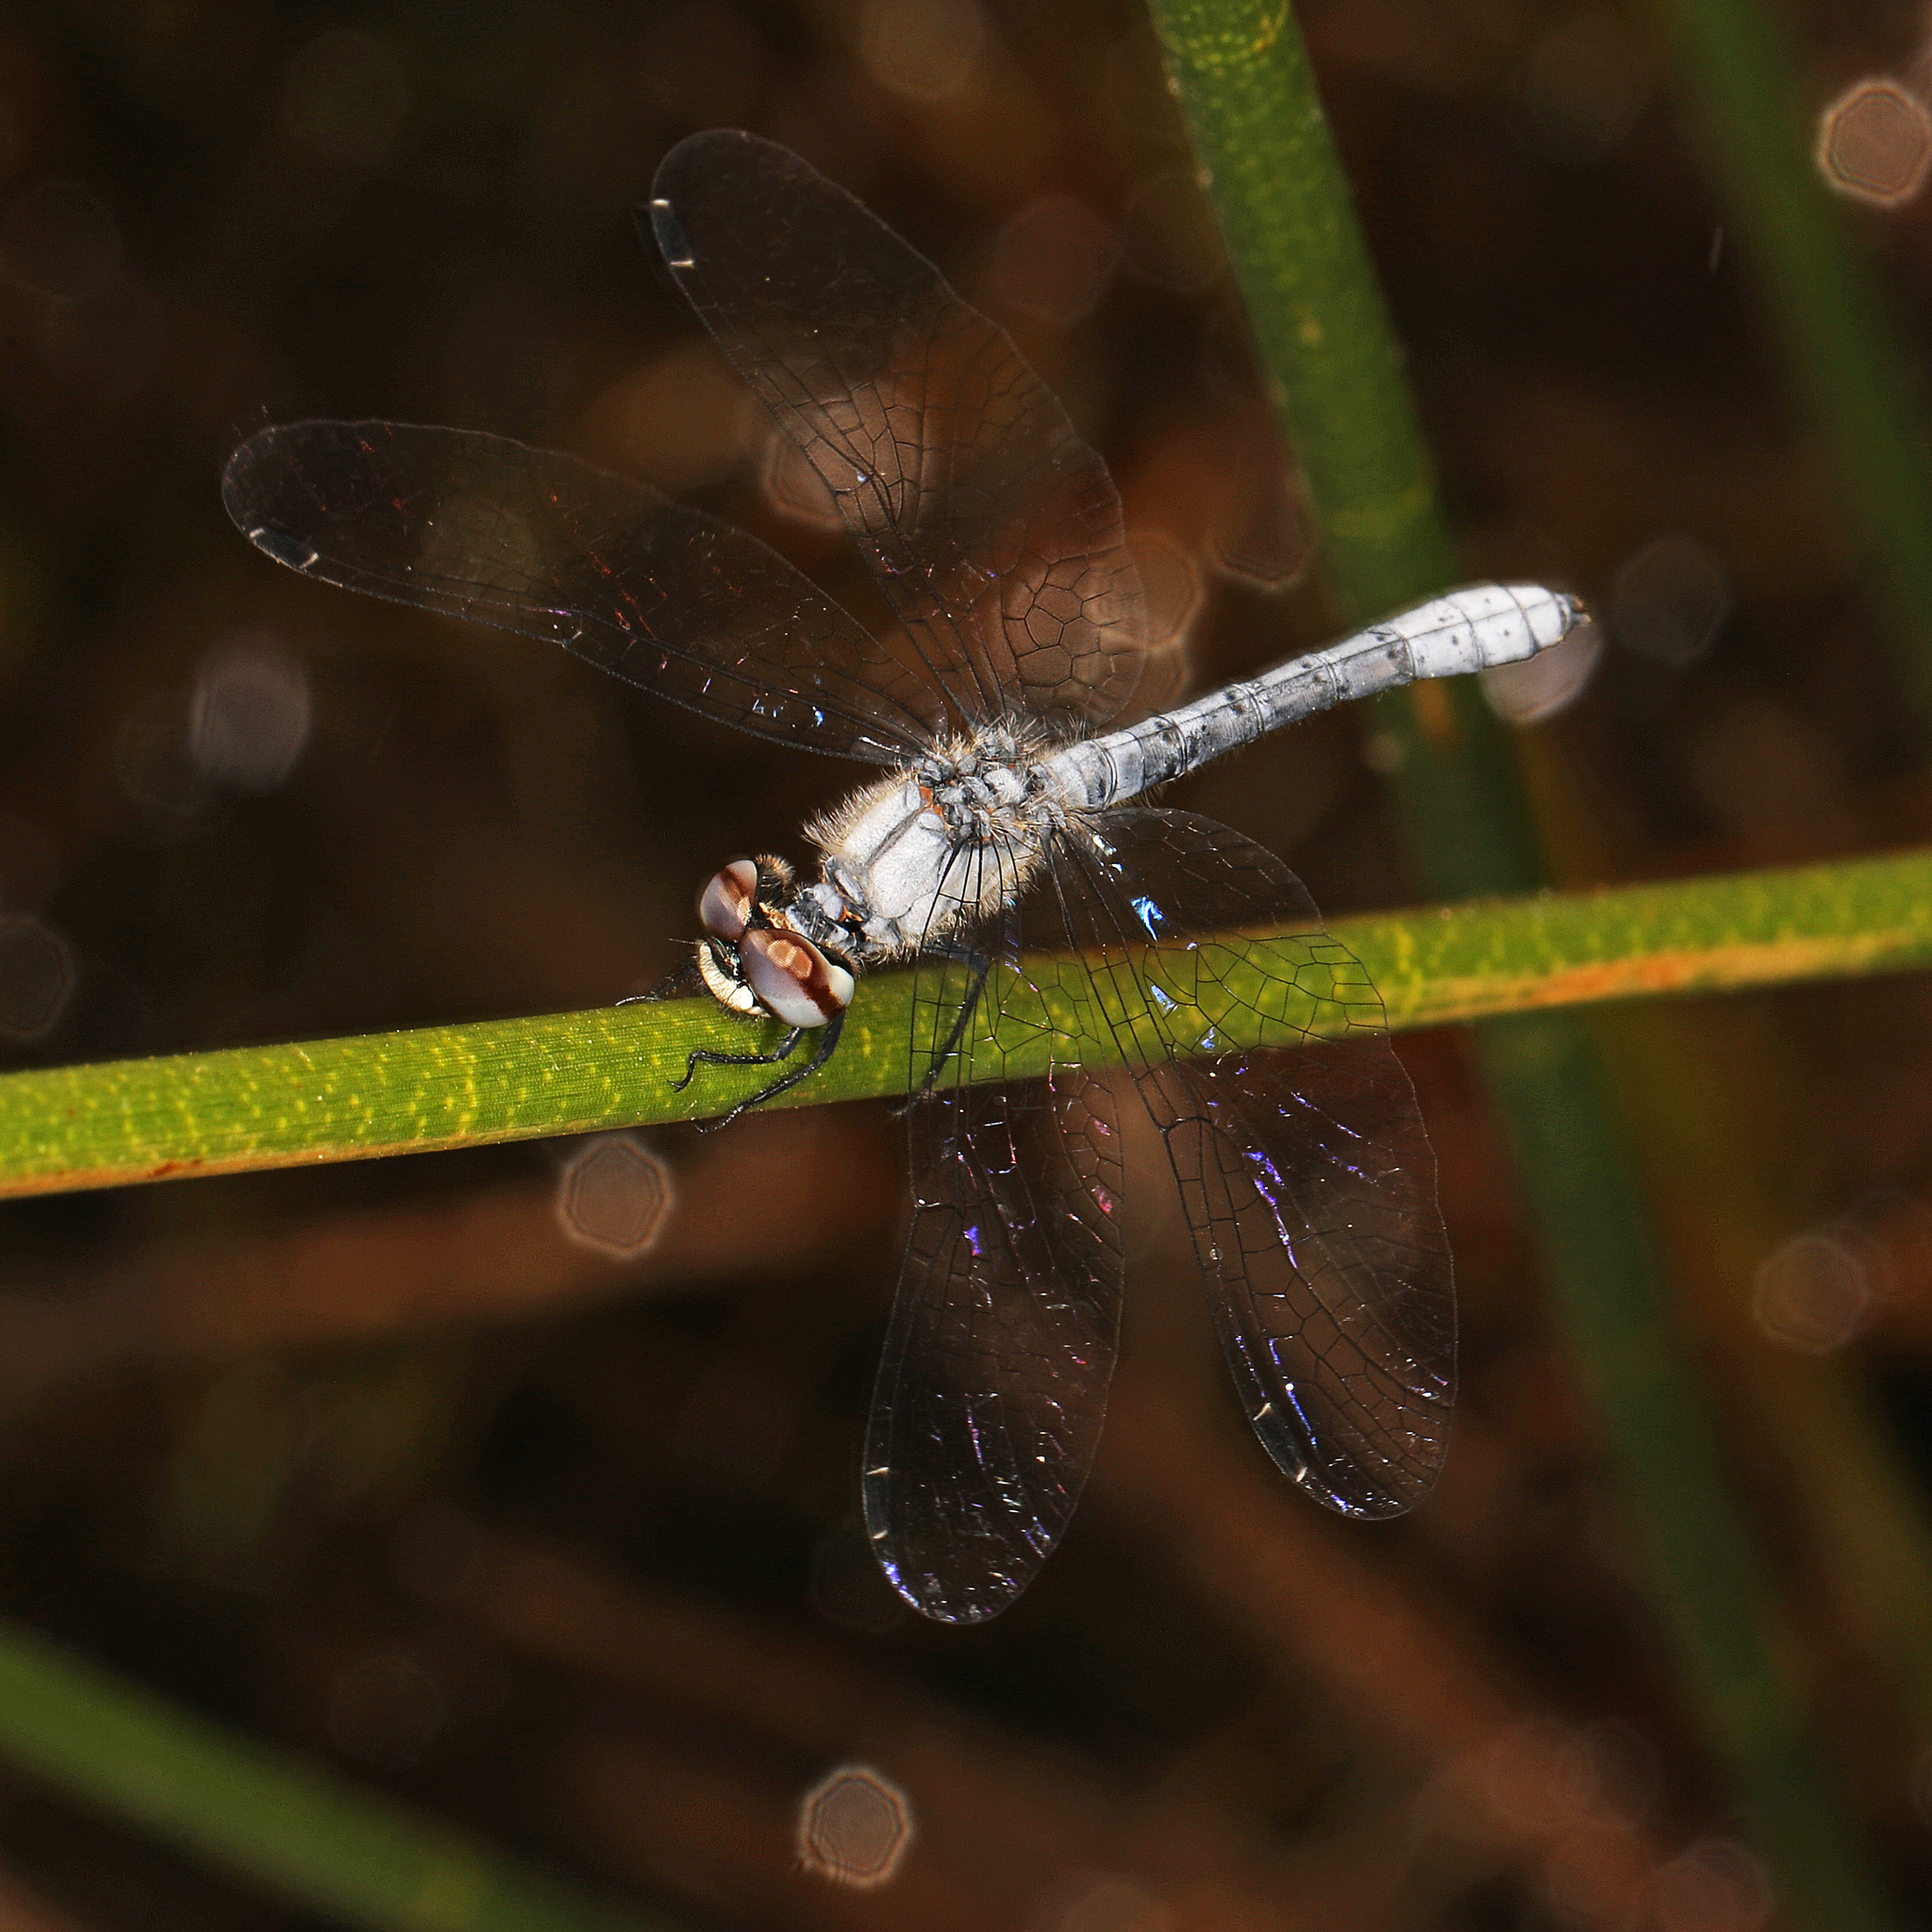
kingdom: Animalia
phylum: Arthropoda
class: Insecta
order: Odonata
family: Libellulidae
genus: Nannothemis
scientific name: Nannothemis bella
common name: Elfin skimmer
